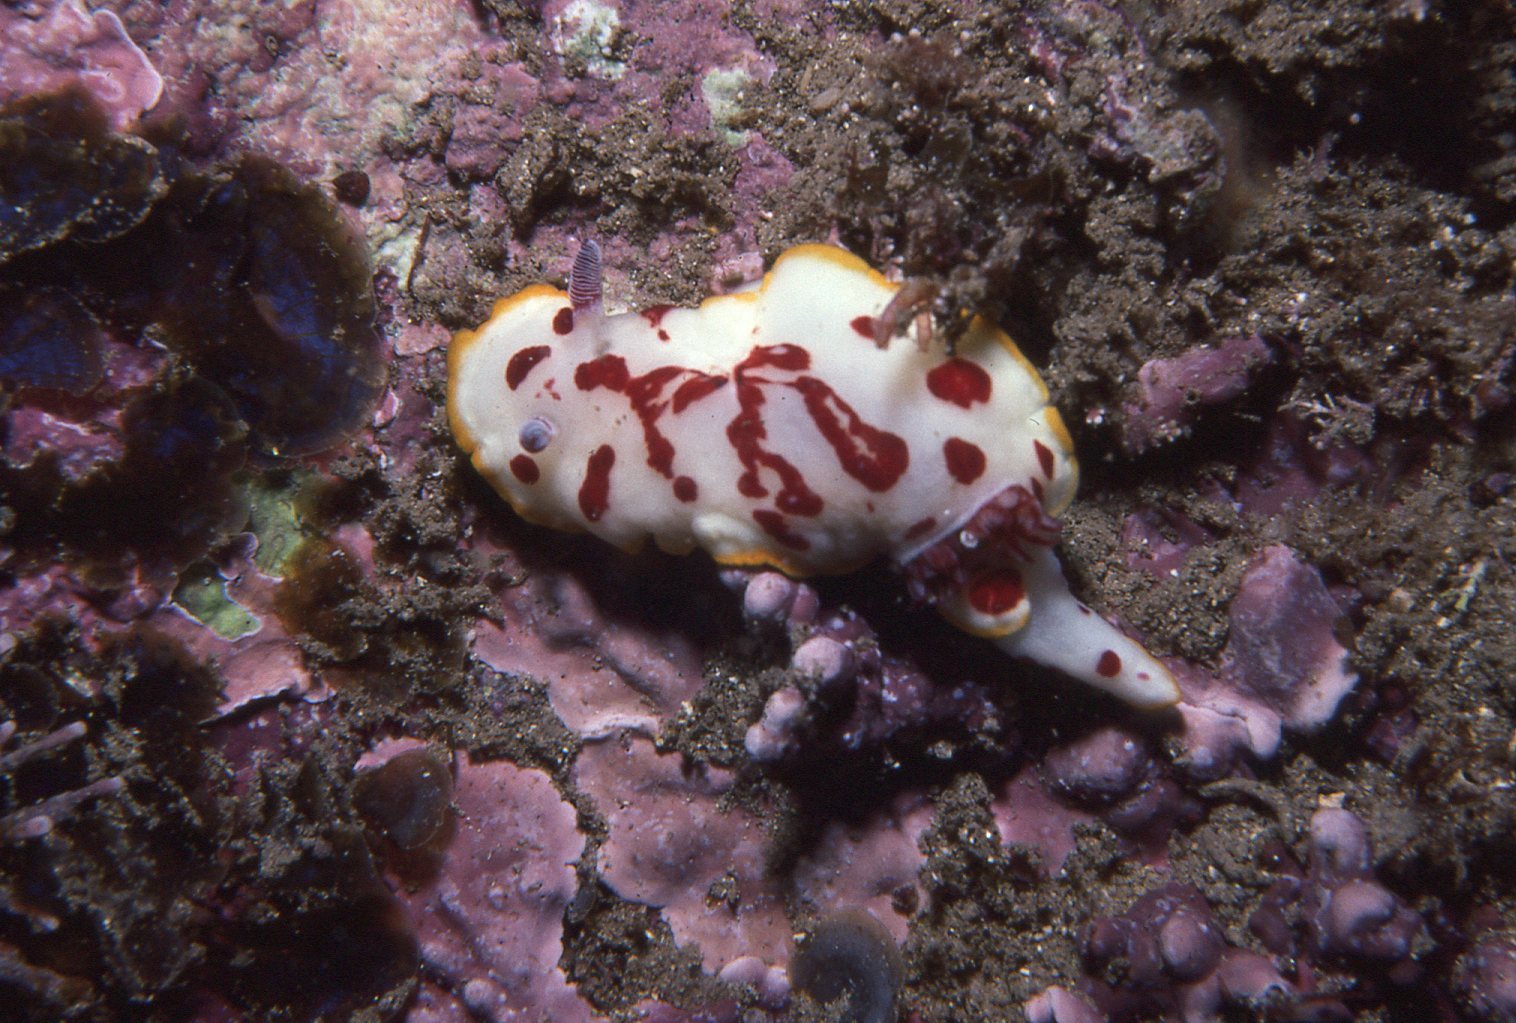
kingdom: Animalia
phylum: Mollusca
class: Gastropoda
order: Nudibranchia
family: Chromodorididae
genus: Goniobranchus
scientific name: Goniobranchus splendidus
